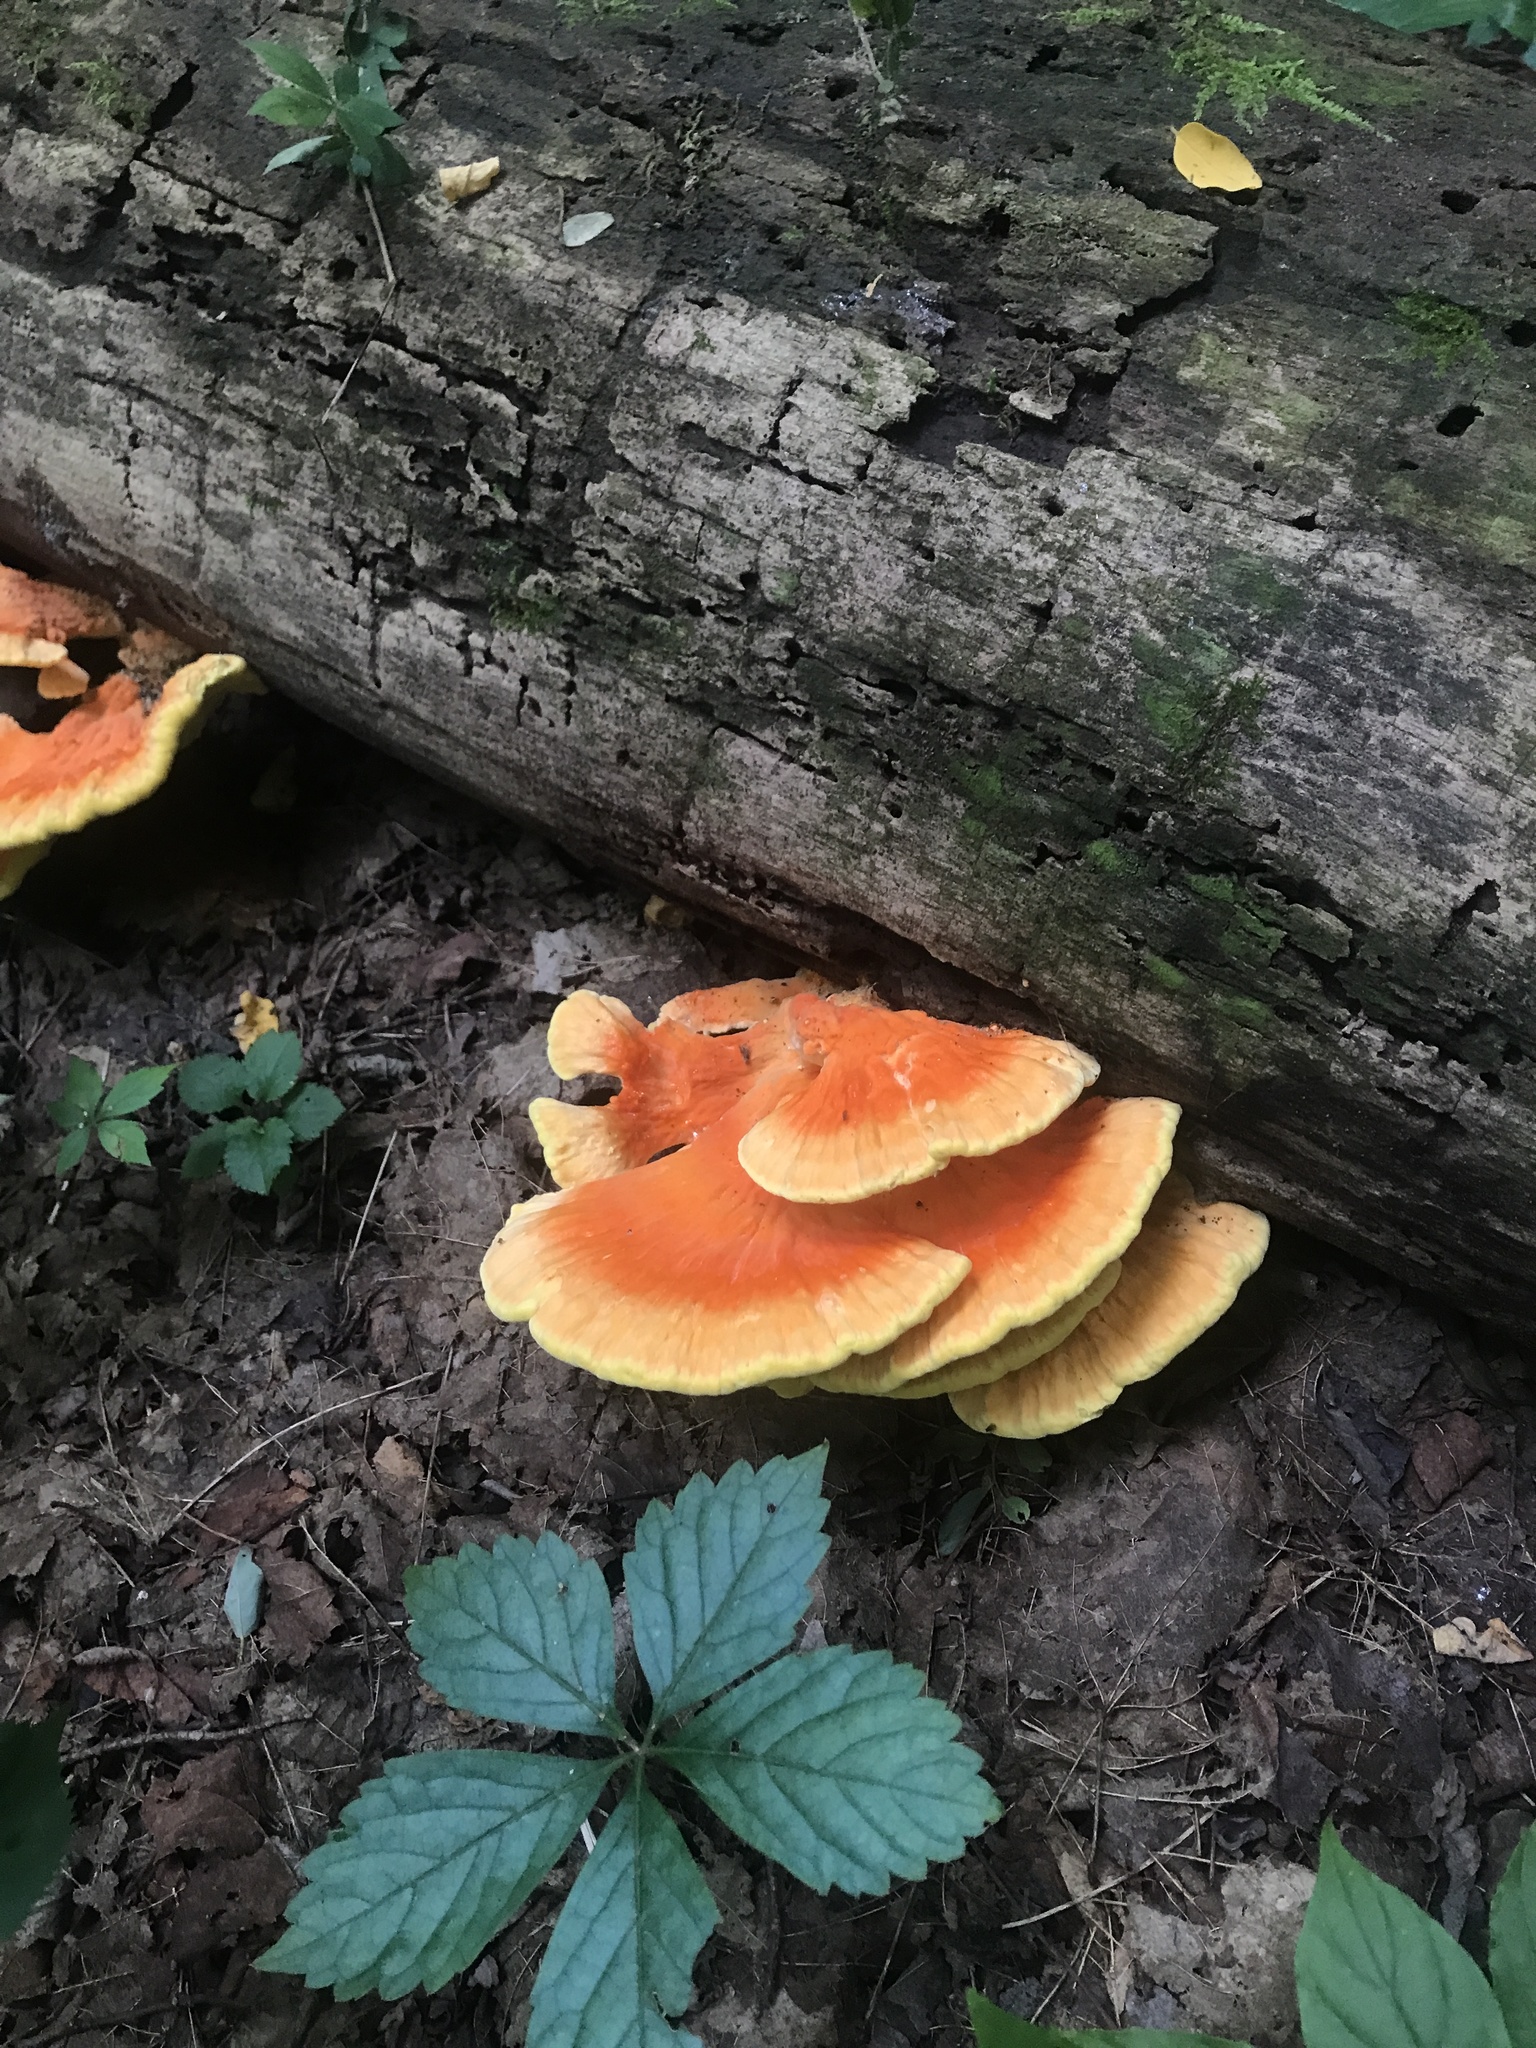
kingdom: Fungi
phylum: Basidiomycota
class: Agaricomycetes
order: Polyporales
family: Laetiporaceae
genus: Laetiporus
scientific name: Laetiporus sulphureus
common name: Chicken of the woods
